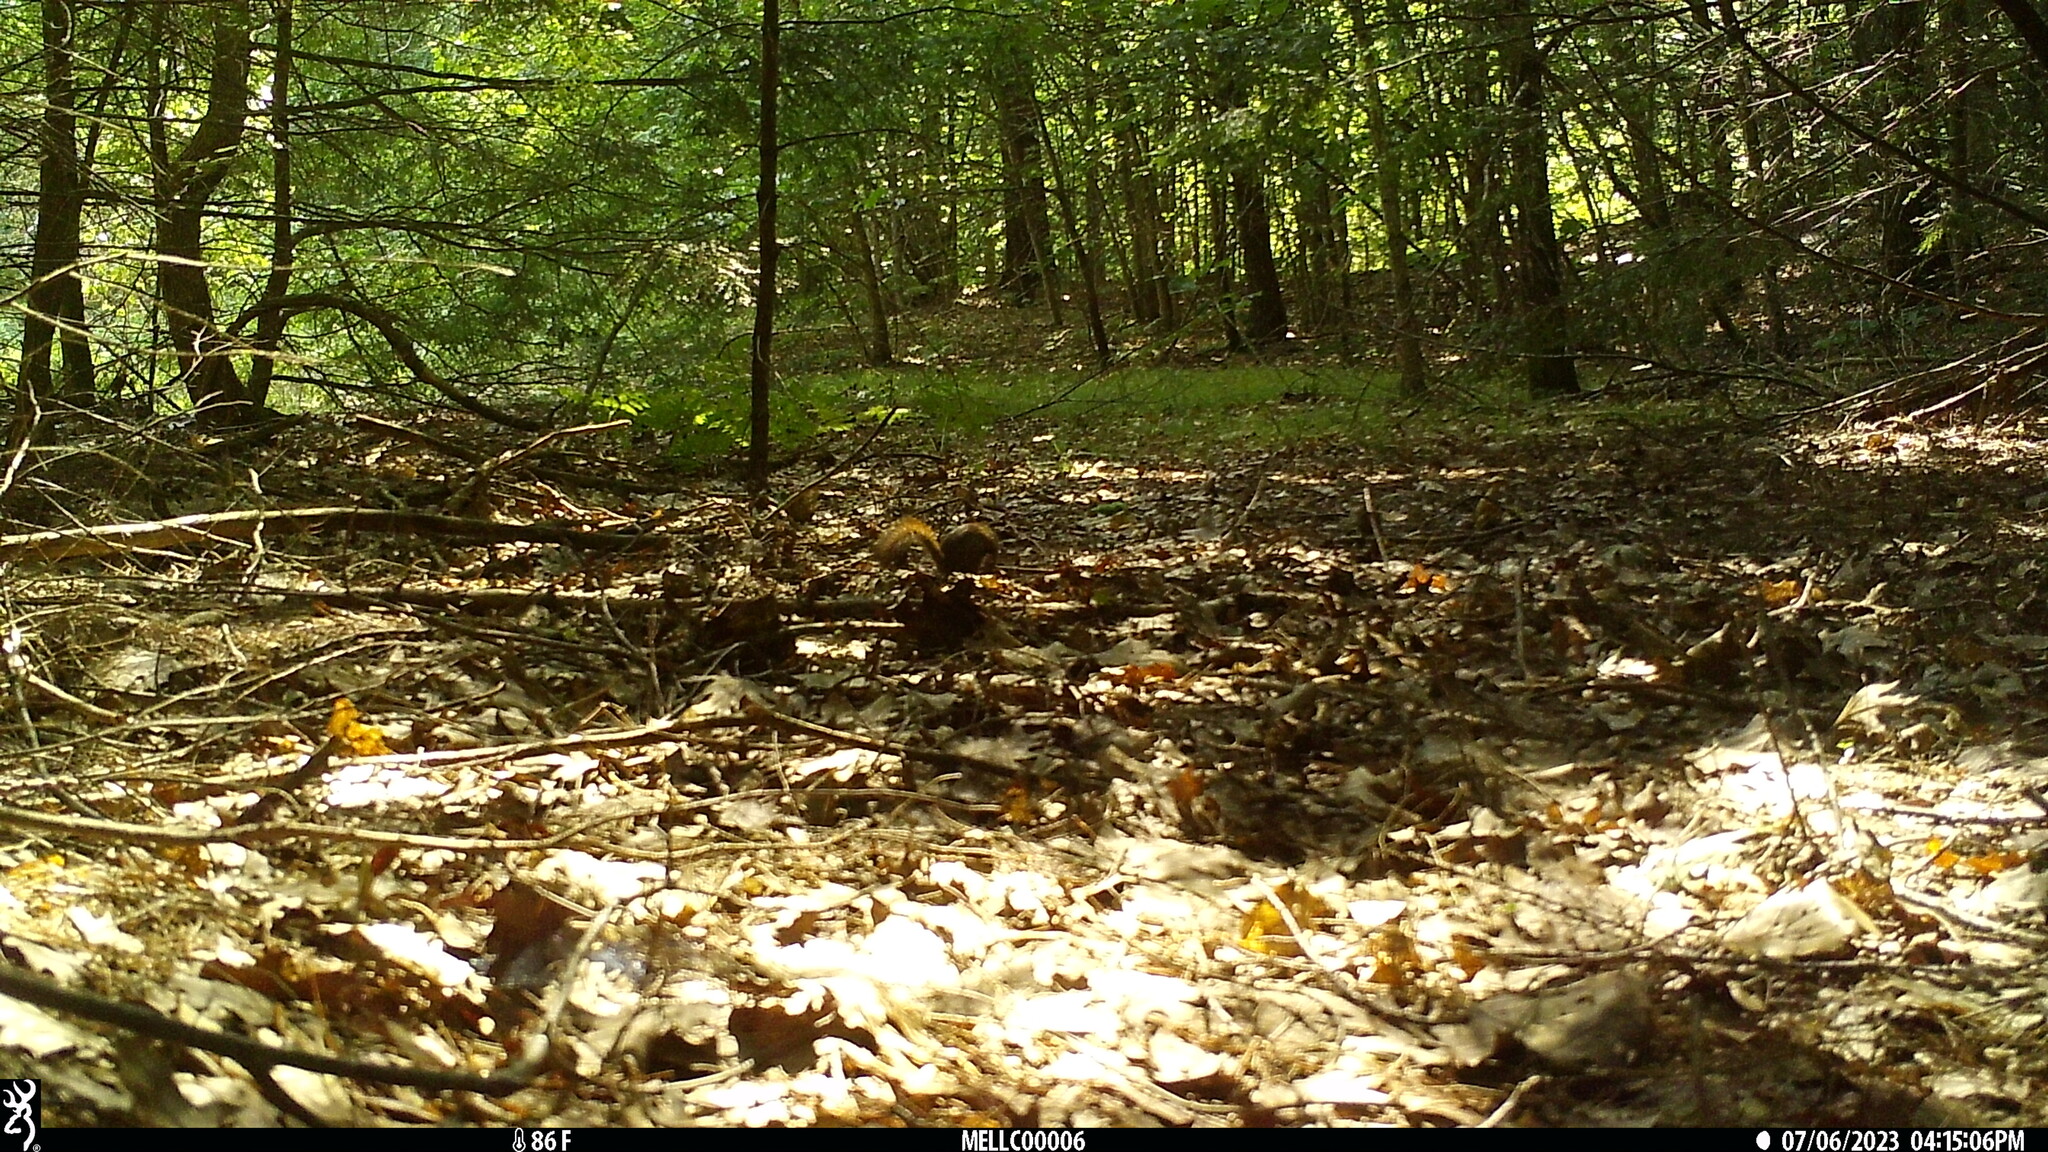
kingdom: Animalia
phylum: Chordata
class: Mammalia
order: Rodentia
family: Sciuridae
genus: Tamiasciurus
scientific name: Tamiasciurus hudsonicus
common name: Red squirrel
